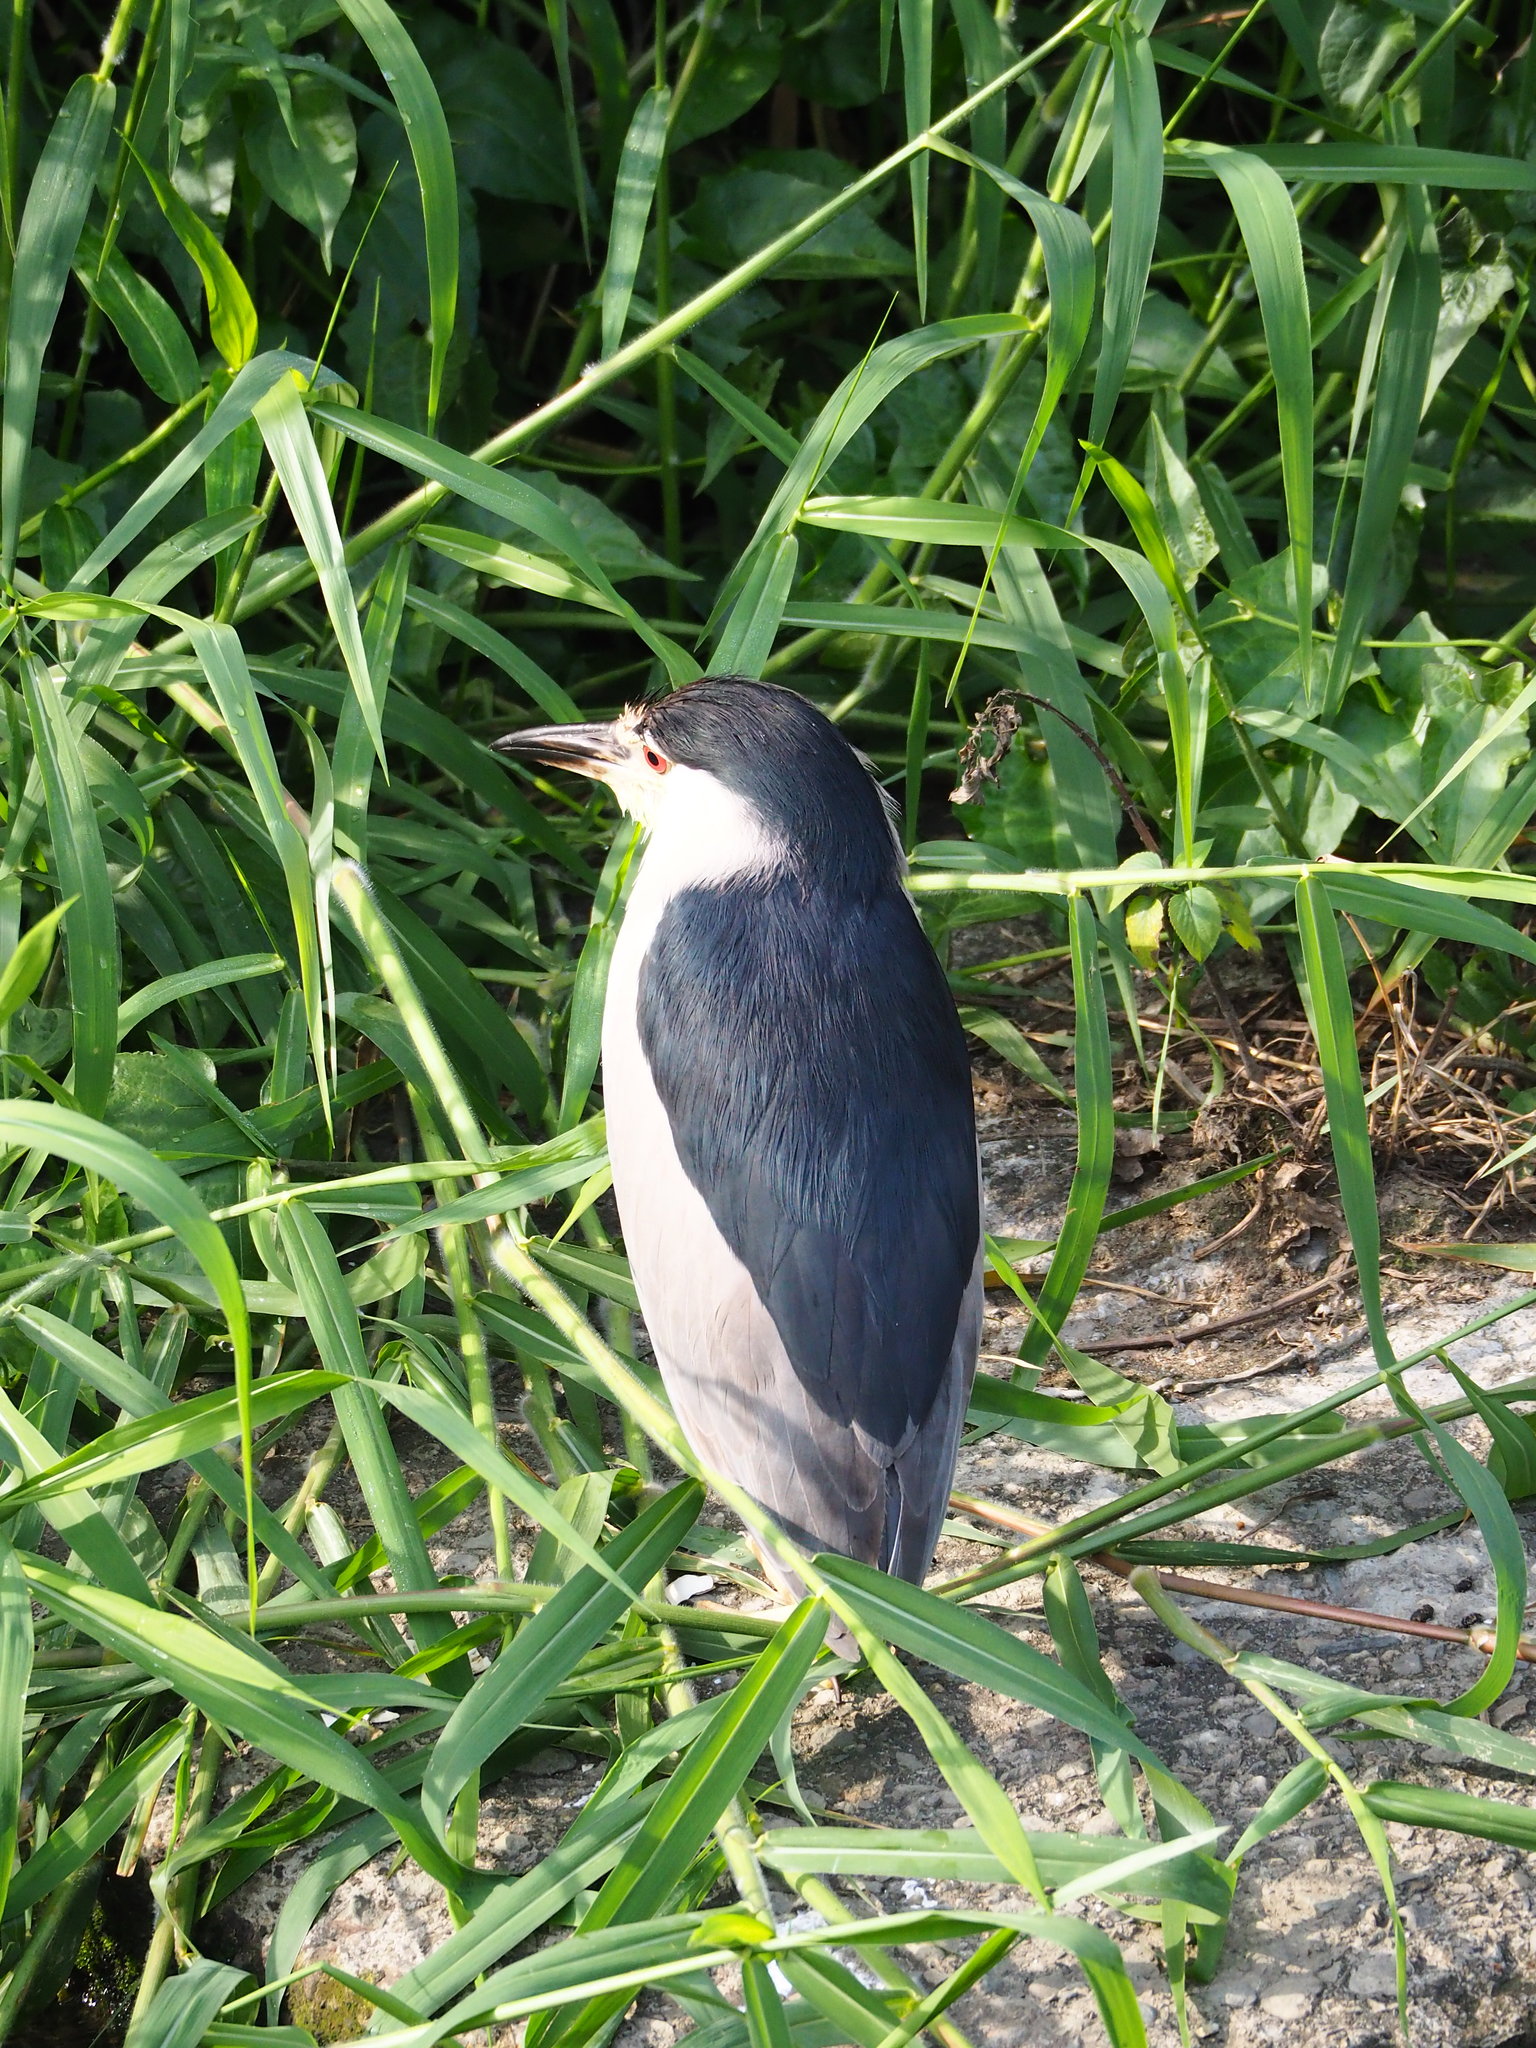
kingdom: Animalia
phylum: Chordata
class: Aves
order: Pelecaniformes
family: Ardeidae
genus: Nycticorax
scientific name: Nycticorax nycticorax
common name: Black-crowned night heron
